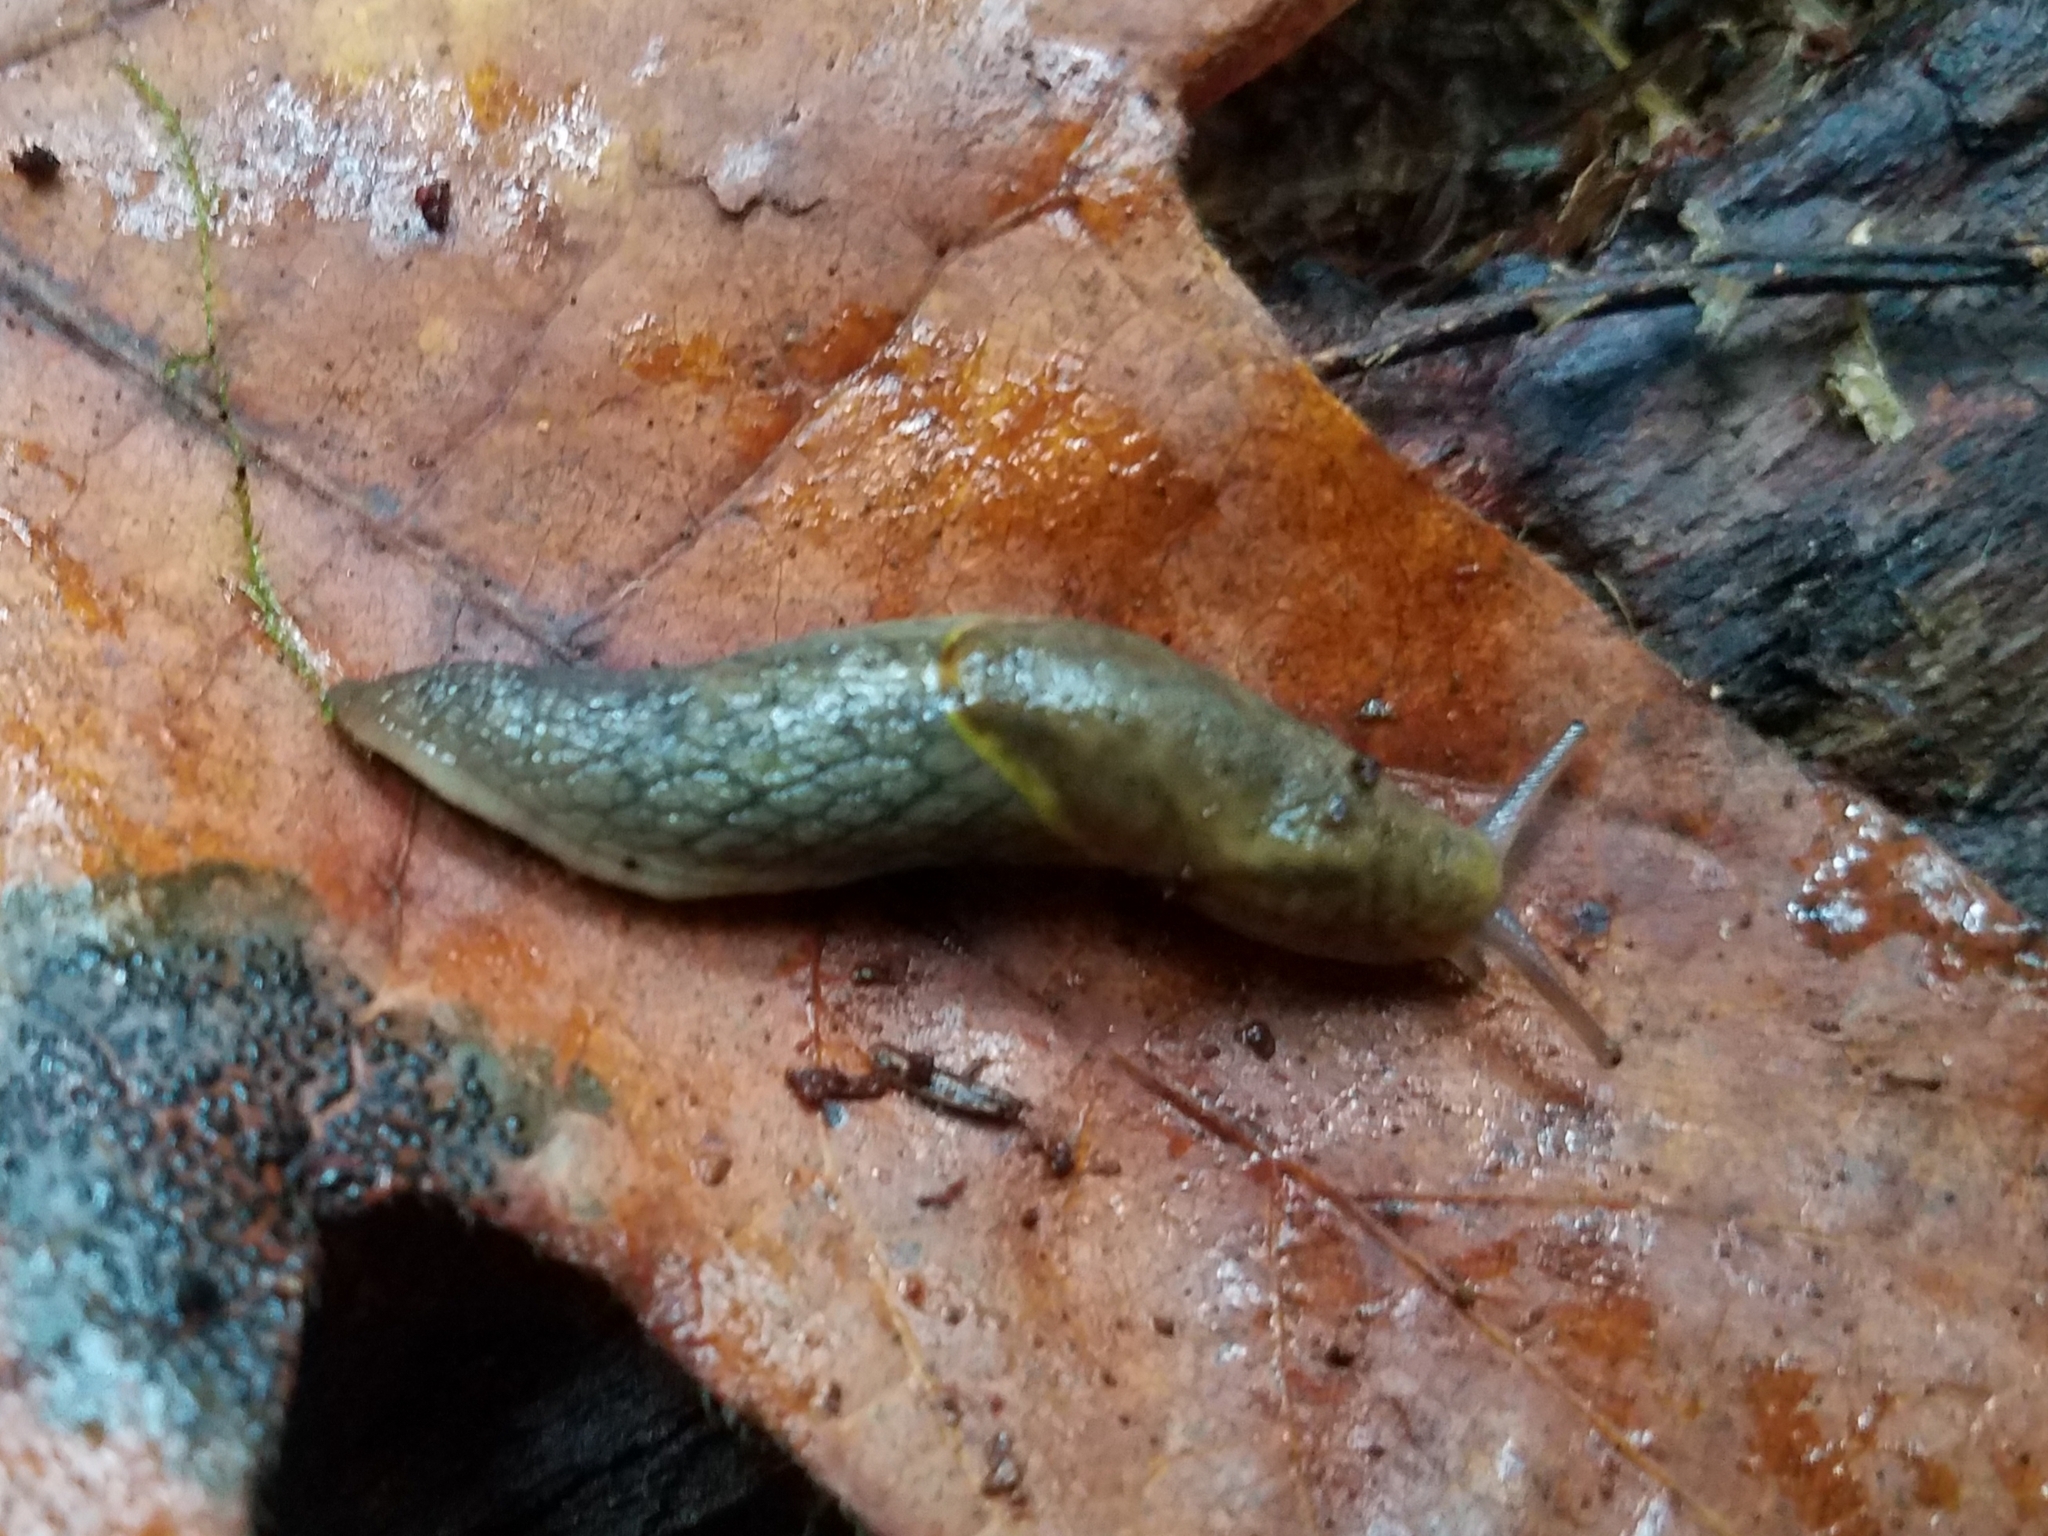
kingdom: Animalia
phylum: Mollusca
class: Gastropoda
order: Stylommatophora
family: Ariolimacidae
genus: Prophysaon
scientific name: Prophysaon foliolatum
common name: Yellow-bordered taildropper
